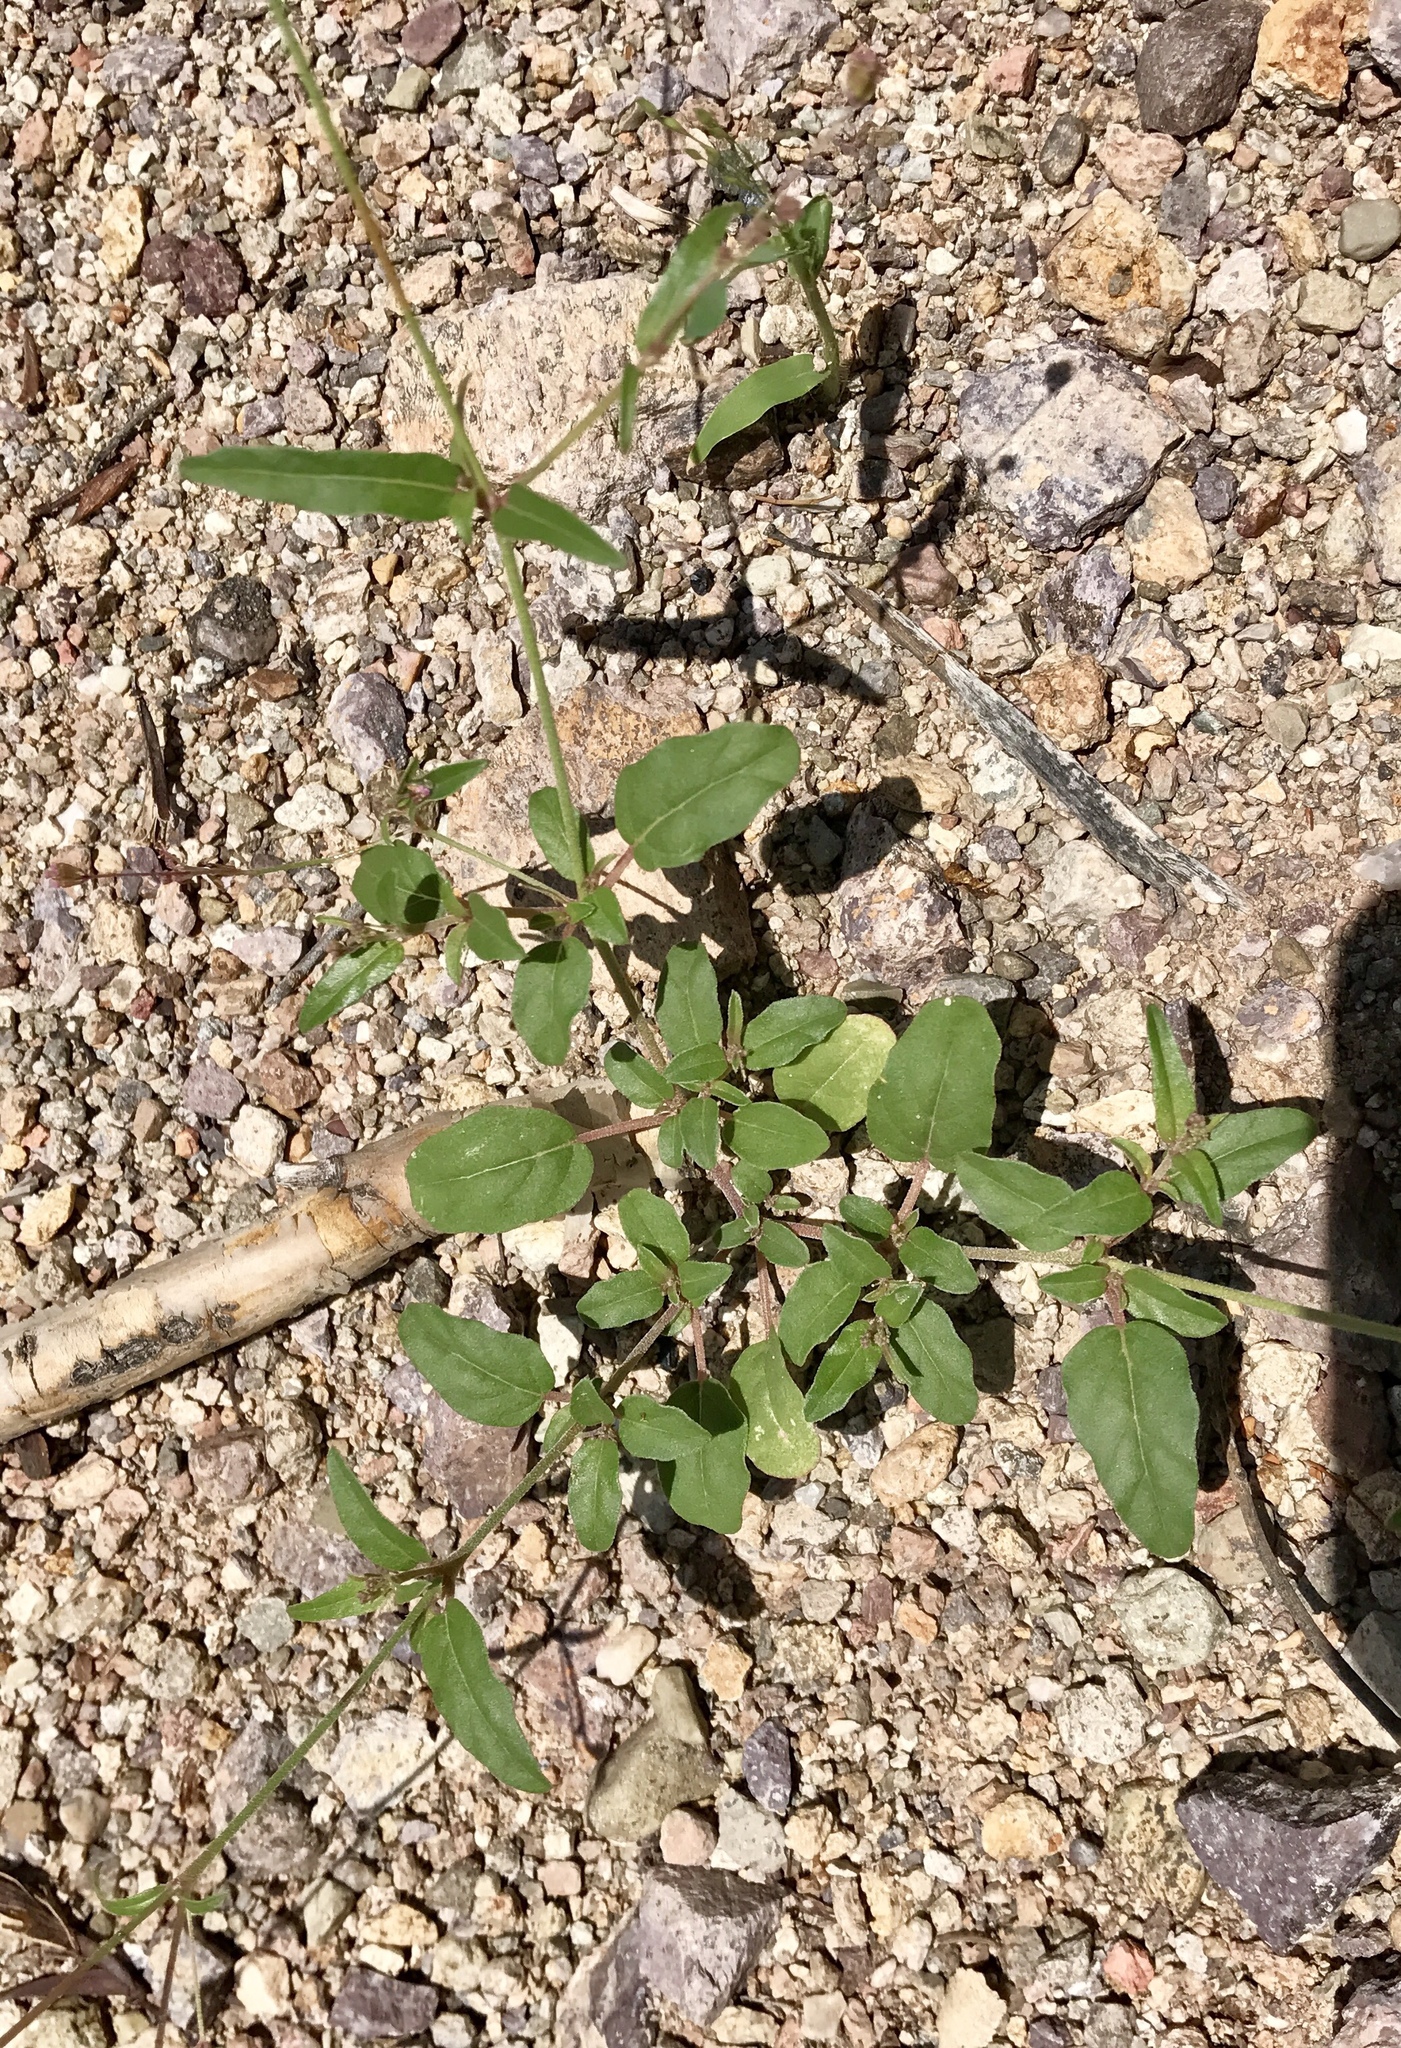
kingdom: Plantae
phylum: Tracheophyta
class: Magnoliopsida
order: Caryophyllales
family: Nyctaginaceae
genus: Boerhavia
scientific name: Boerhavia erecta
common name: Erect spiderling
